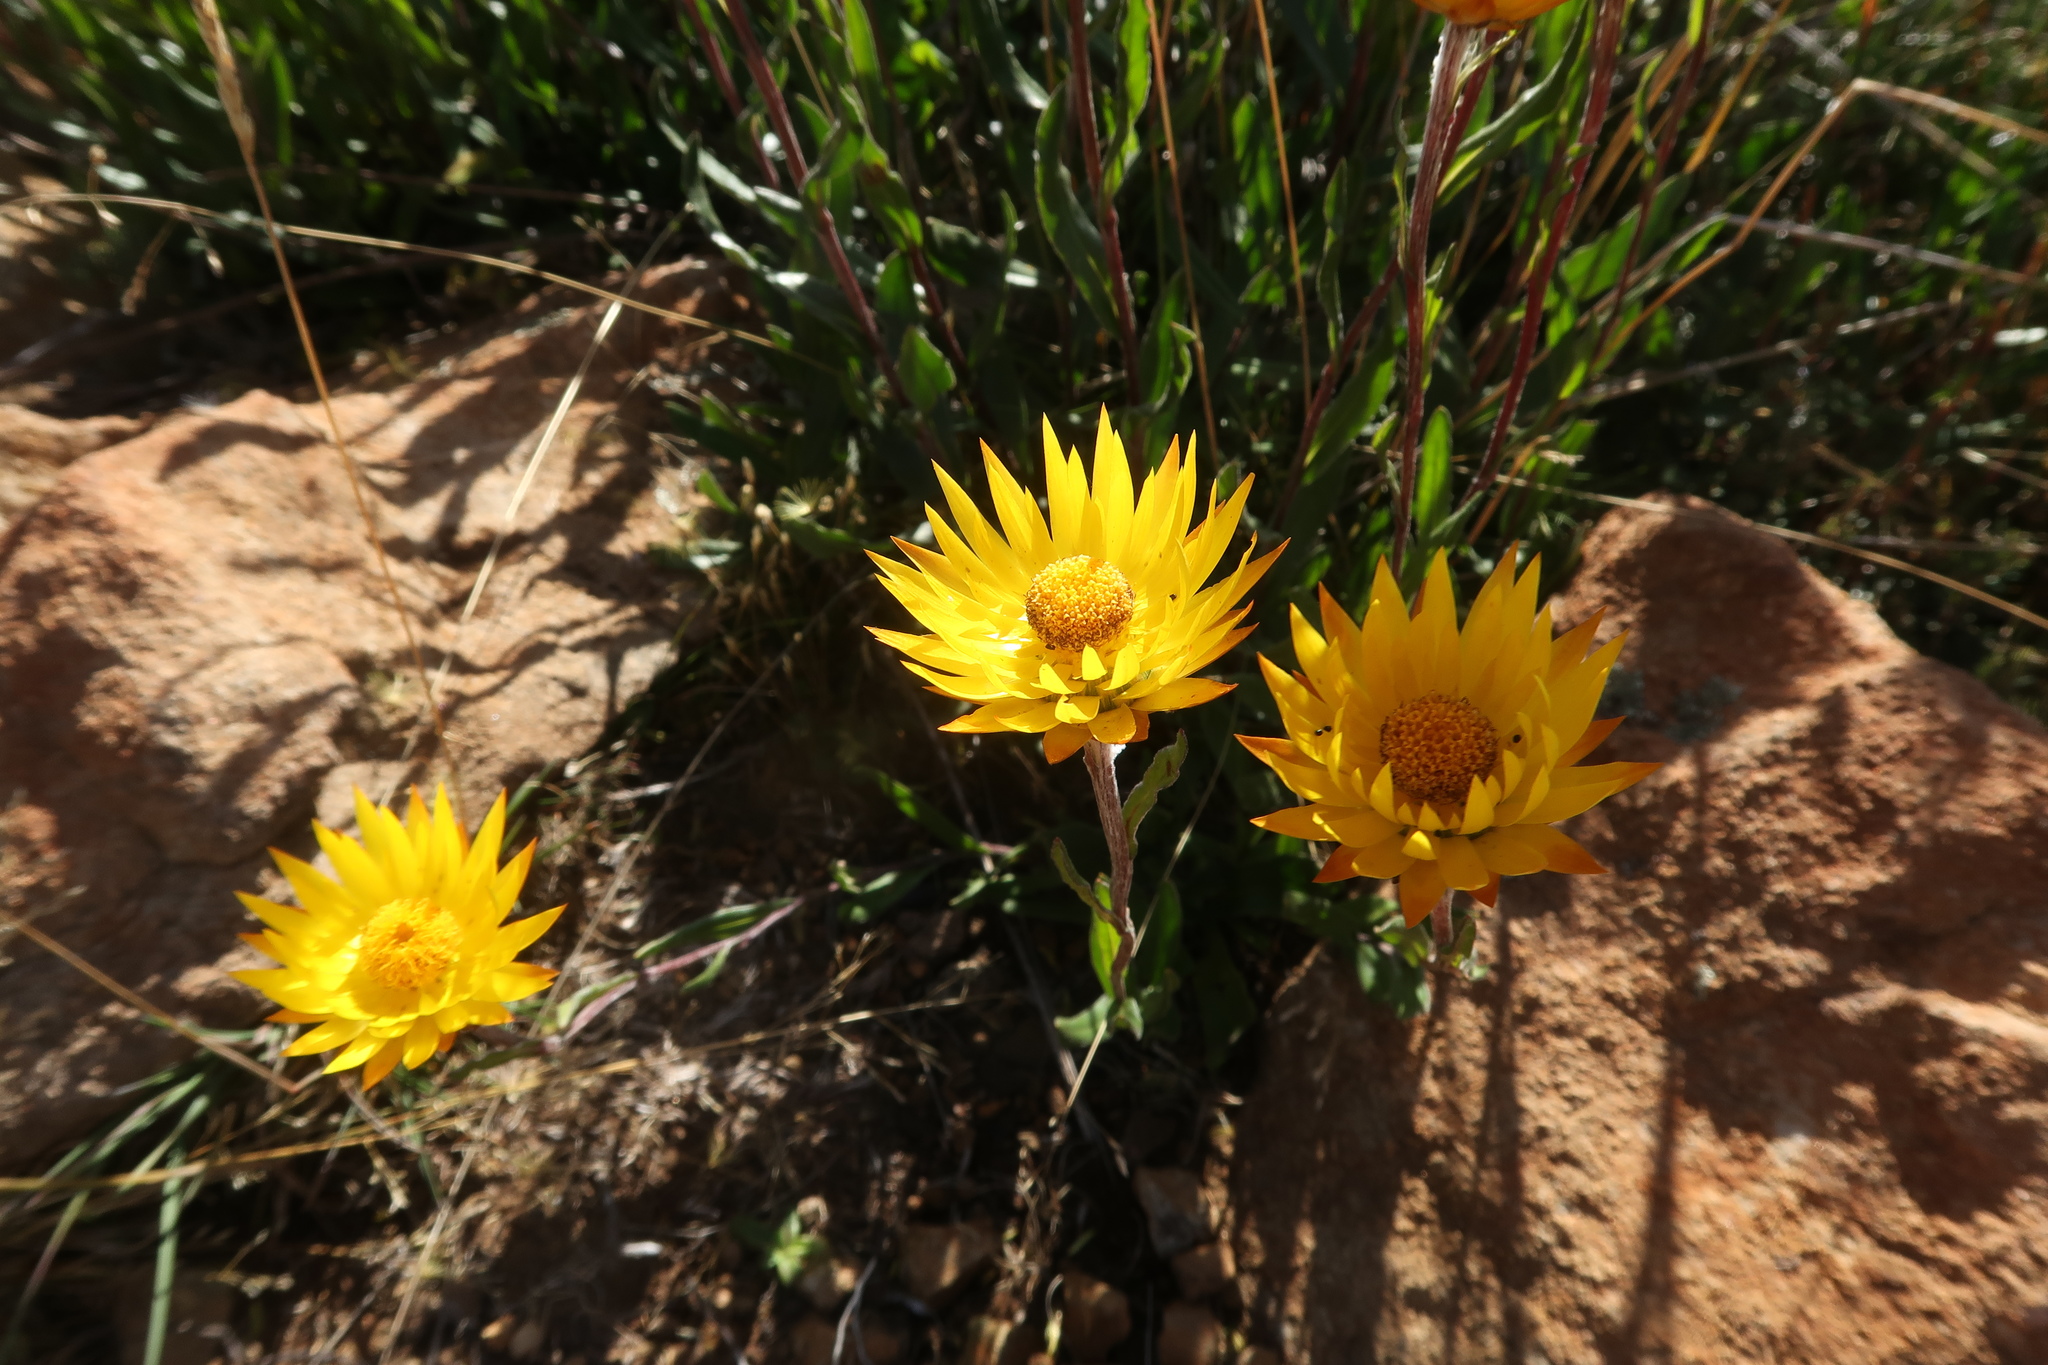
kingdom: Plantae
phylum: Tracheophyta
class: Magnoliopsida
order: Asterales
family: Asteraceae
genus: Xerochrysum
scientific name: Xerochrysum subundulatum
